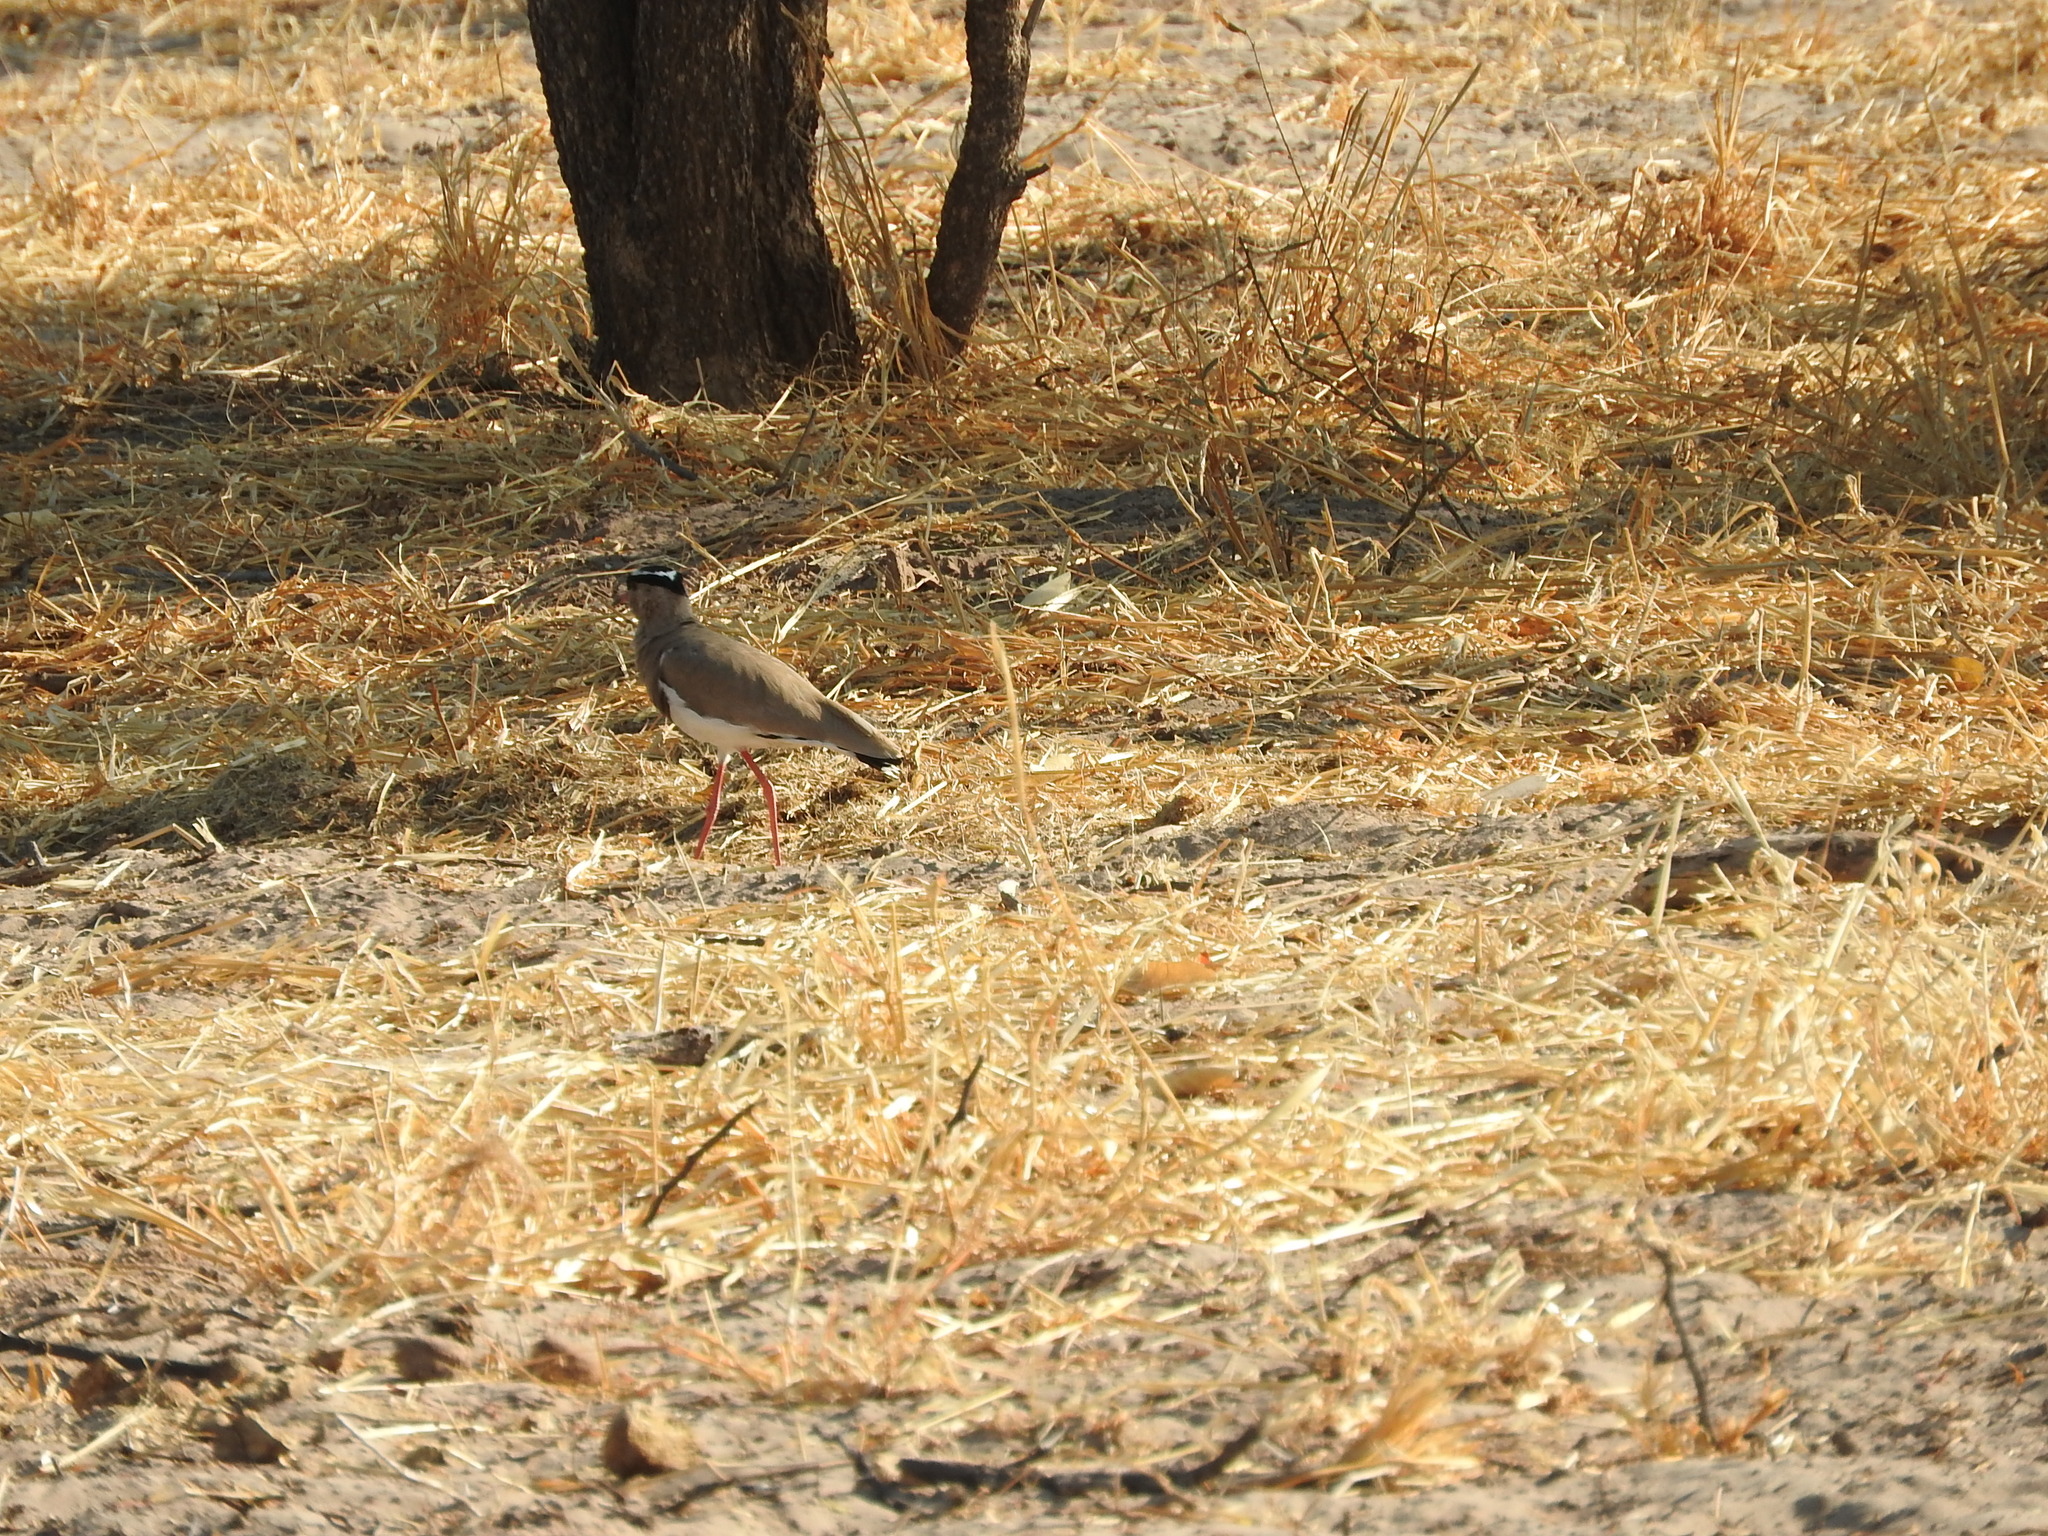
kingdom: Animalia
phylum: Chordata
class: Aves
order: Charadriiformes
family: Charadriidae
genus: Vanellus
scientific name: Vanellus coronatus
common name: Crowned lapwing
